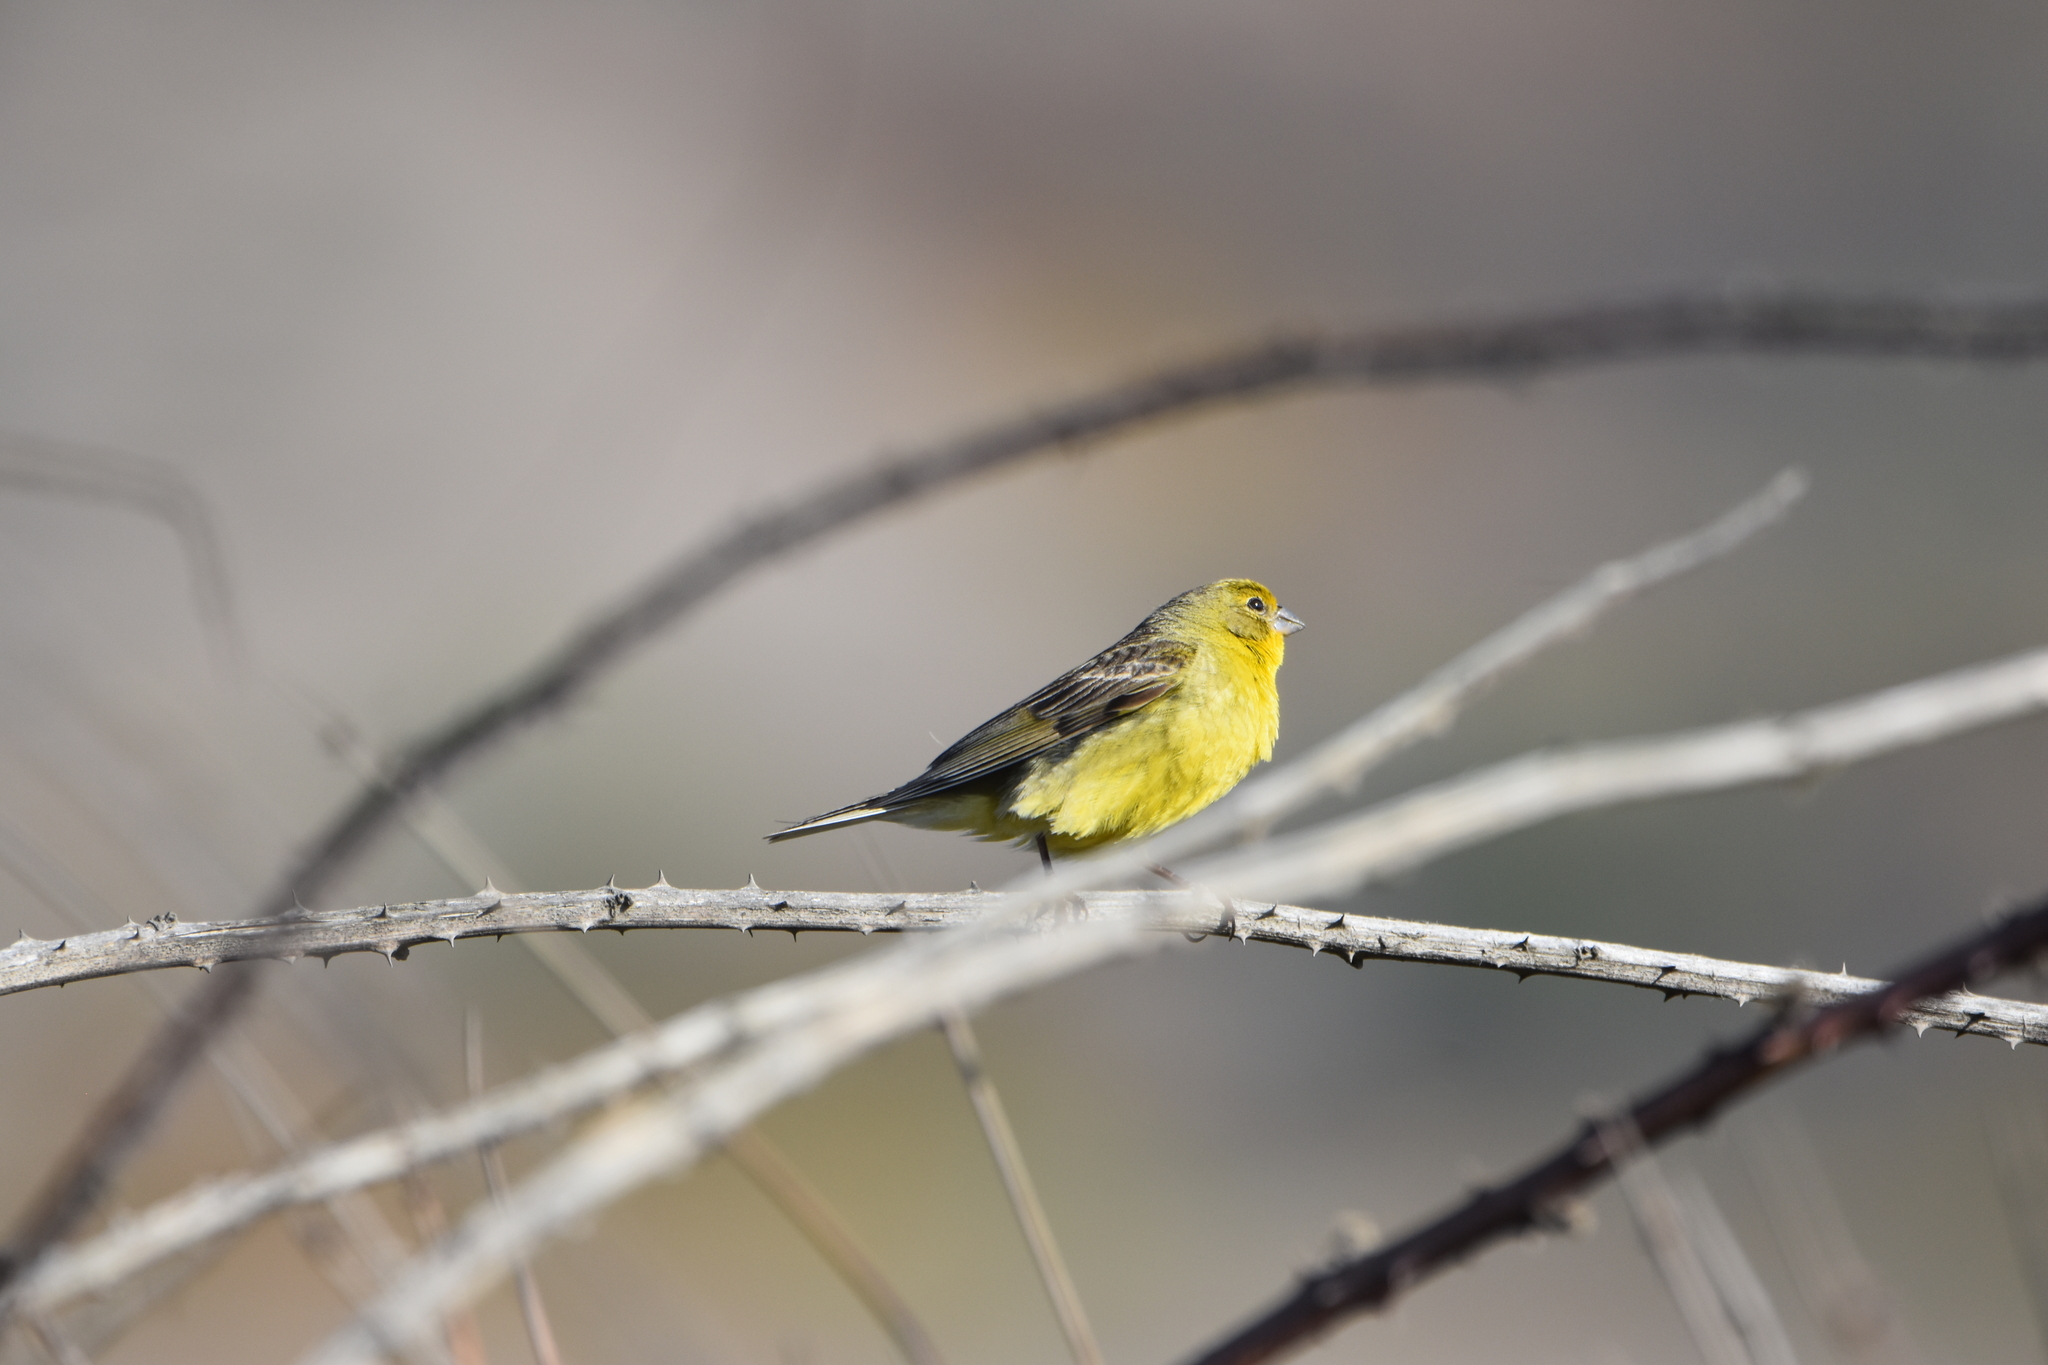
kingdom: Animalia
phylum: Chordata
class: Aves
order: Passeriformes
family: Thraupidae
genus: Sicalis
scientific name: Sicalis luteola
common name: Grassland yellow-finch
